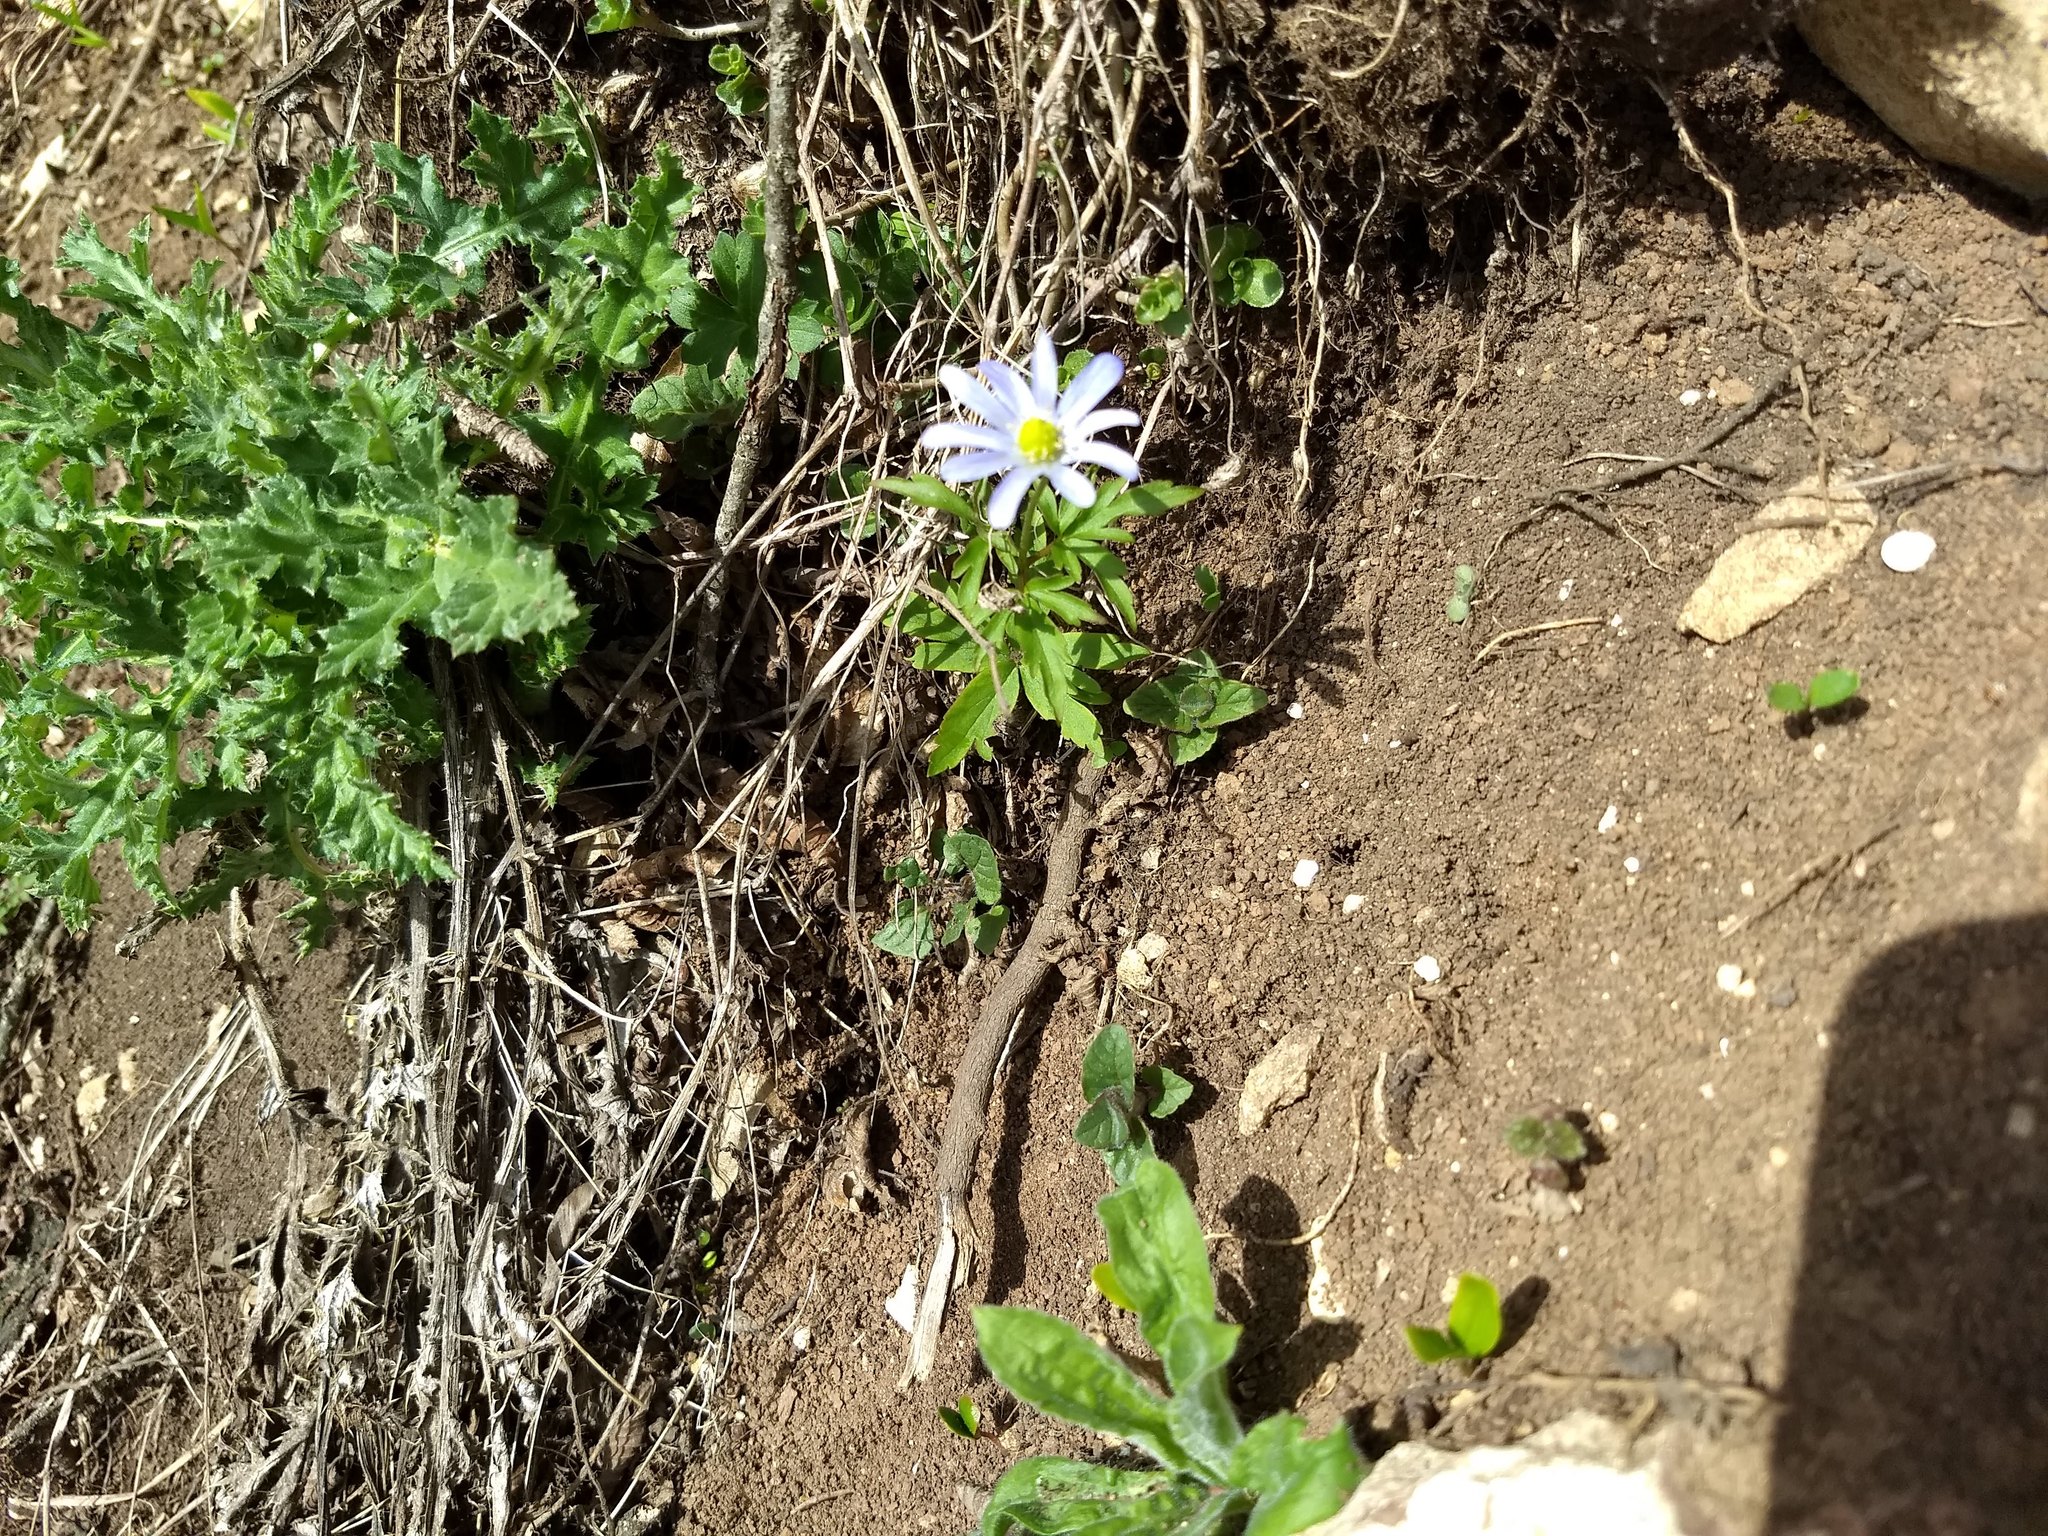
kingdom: Plantae
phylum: Tracheophyta
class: Magnoliopsida
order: Ranunculales
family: Ranunculaceae
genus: Anemone
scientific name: Anemone blanda
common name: Balkan anemone
